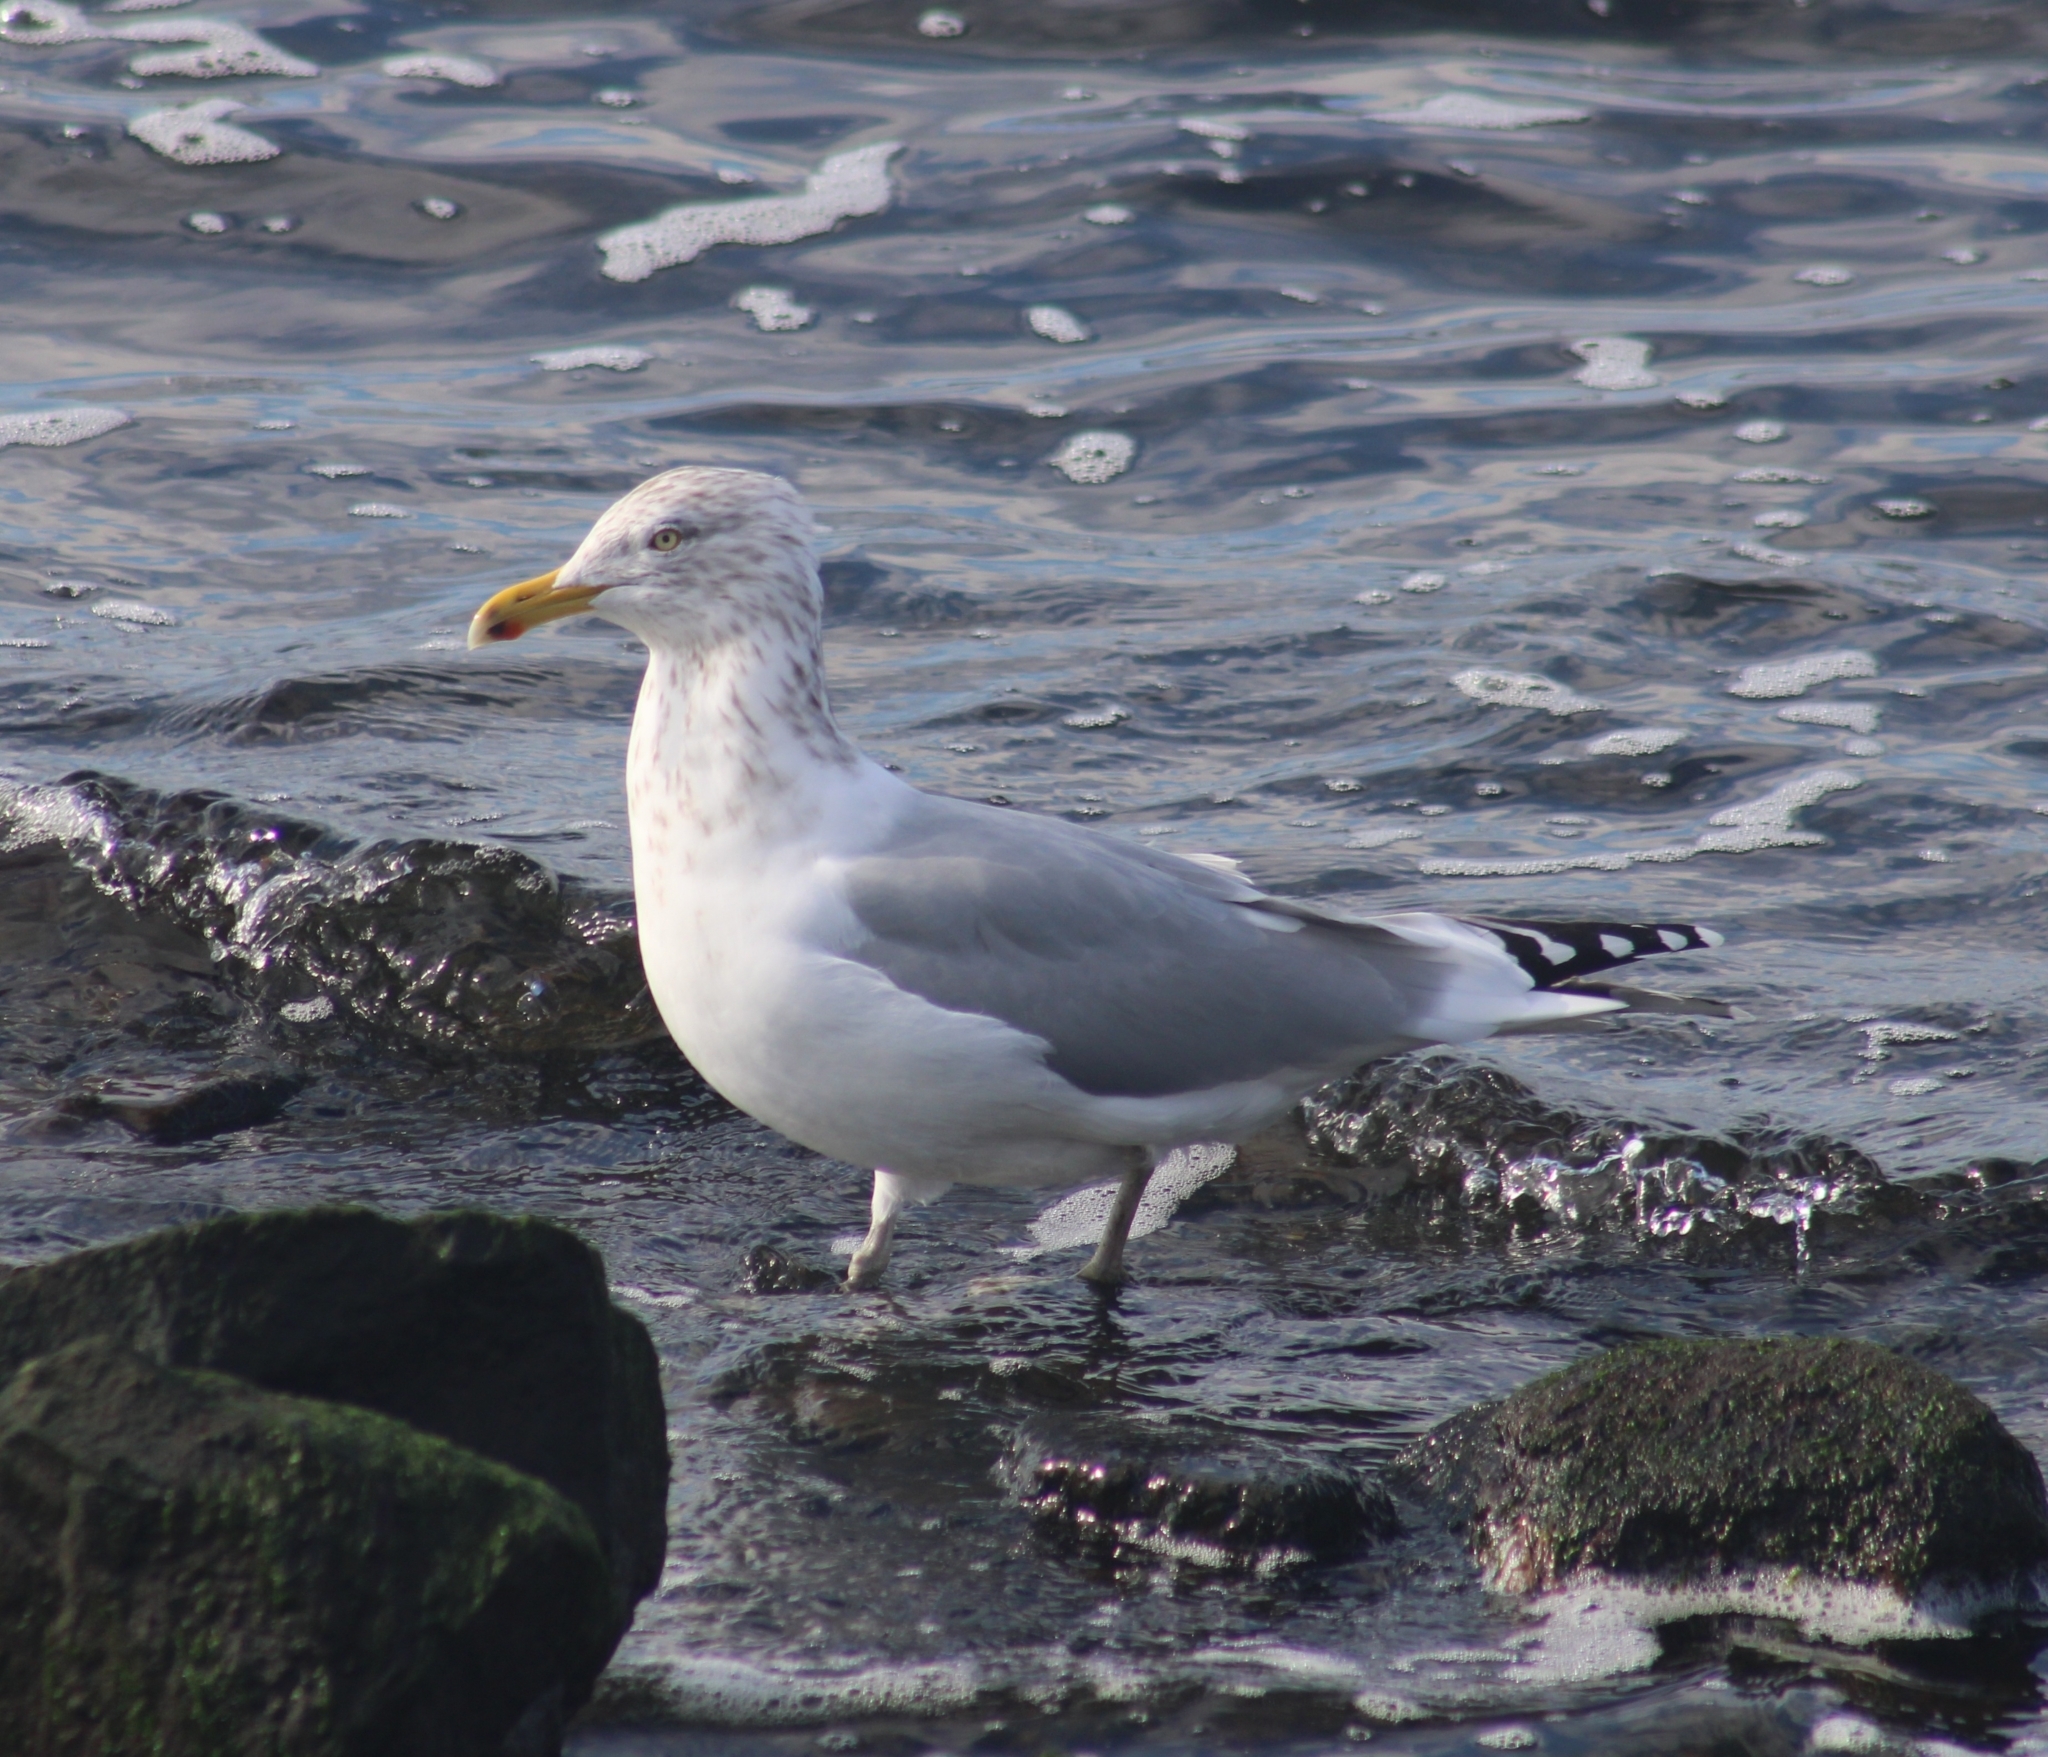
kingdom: Animalia
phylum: Chordata
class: Aves
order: Charadriiformes
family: Laridae
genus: Larus
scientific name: Larus argentatus
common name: Herring gull
